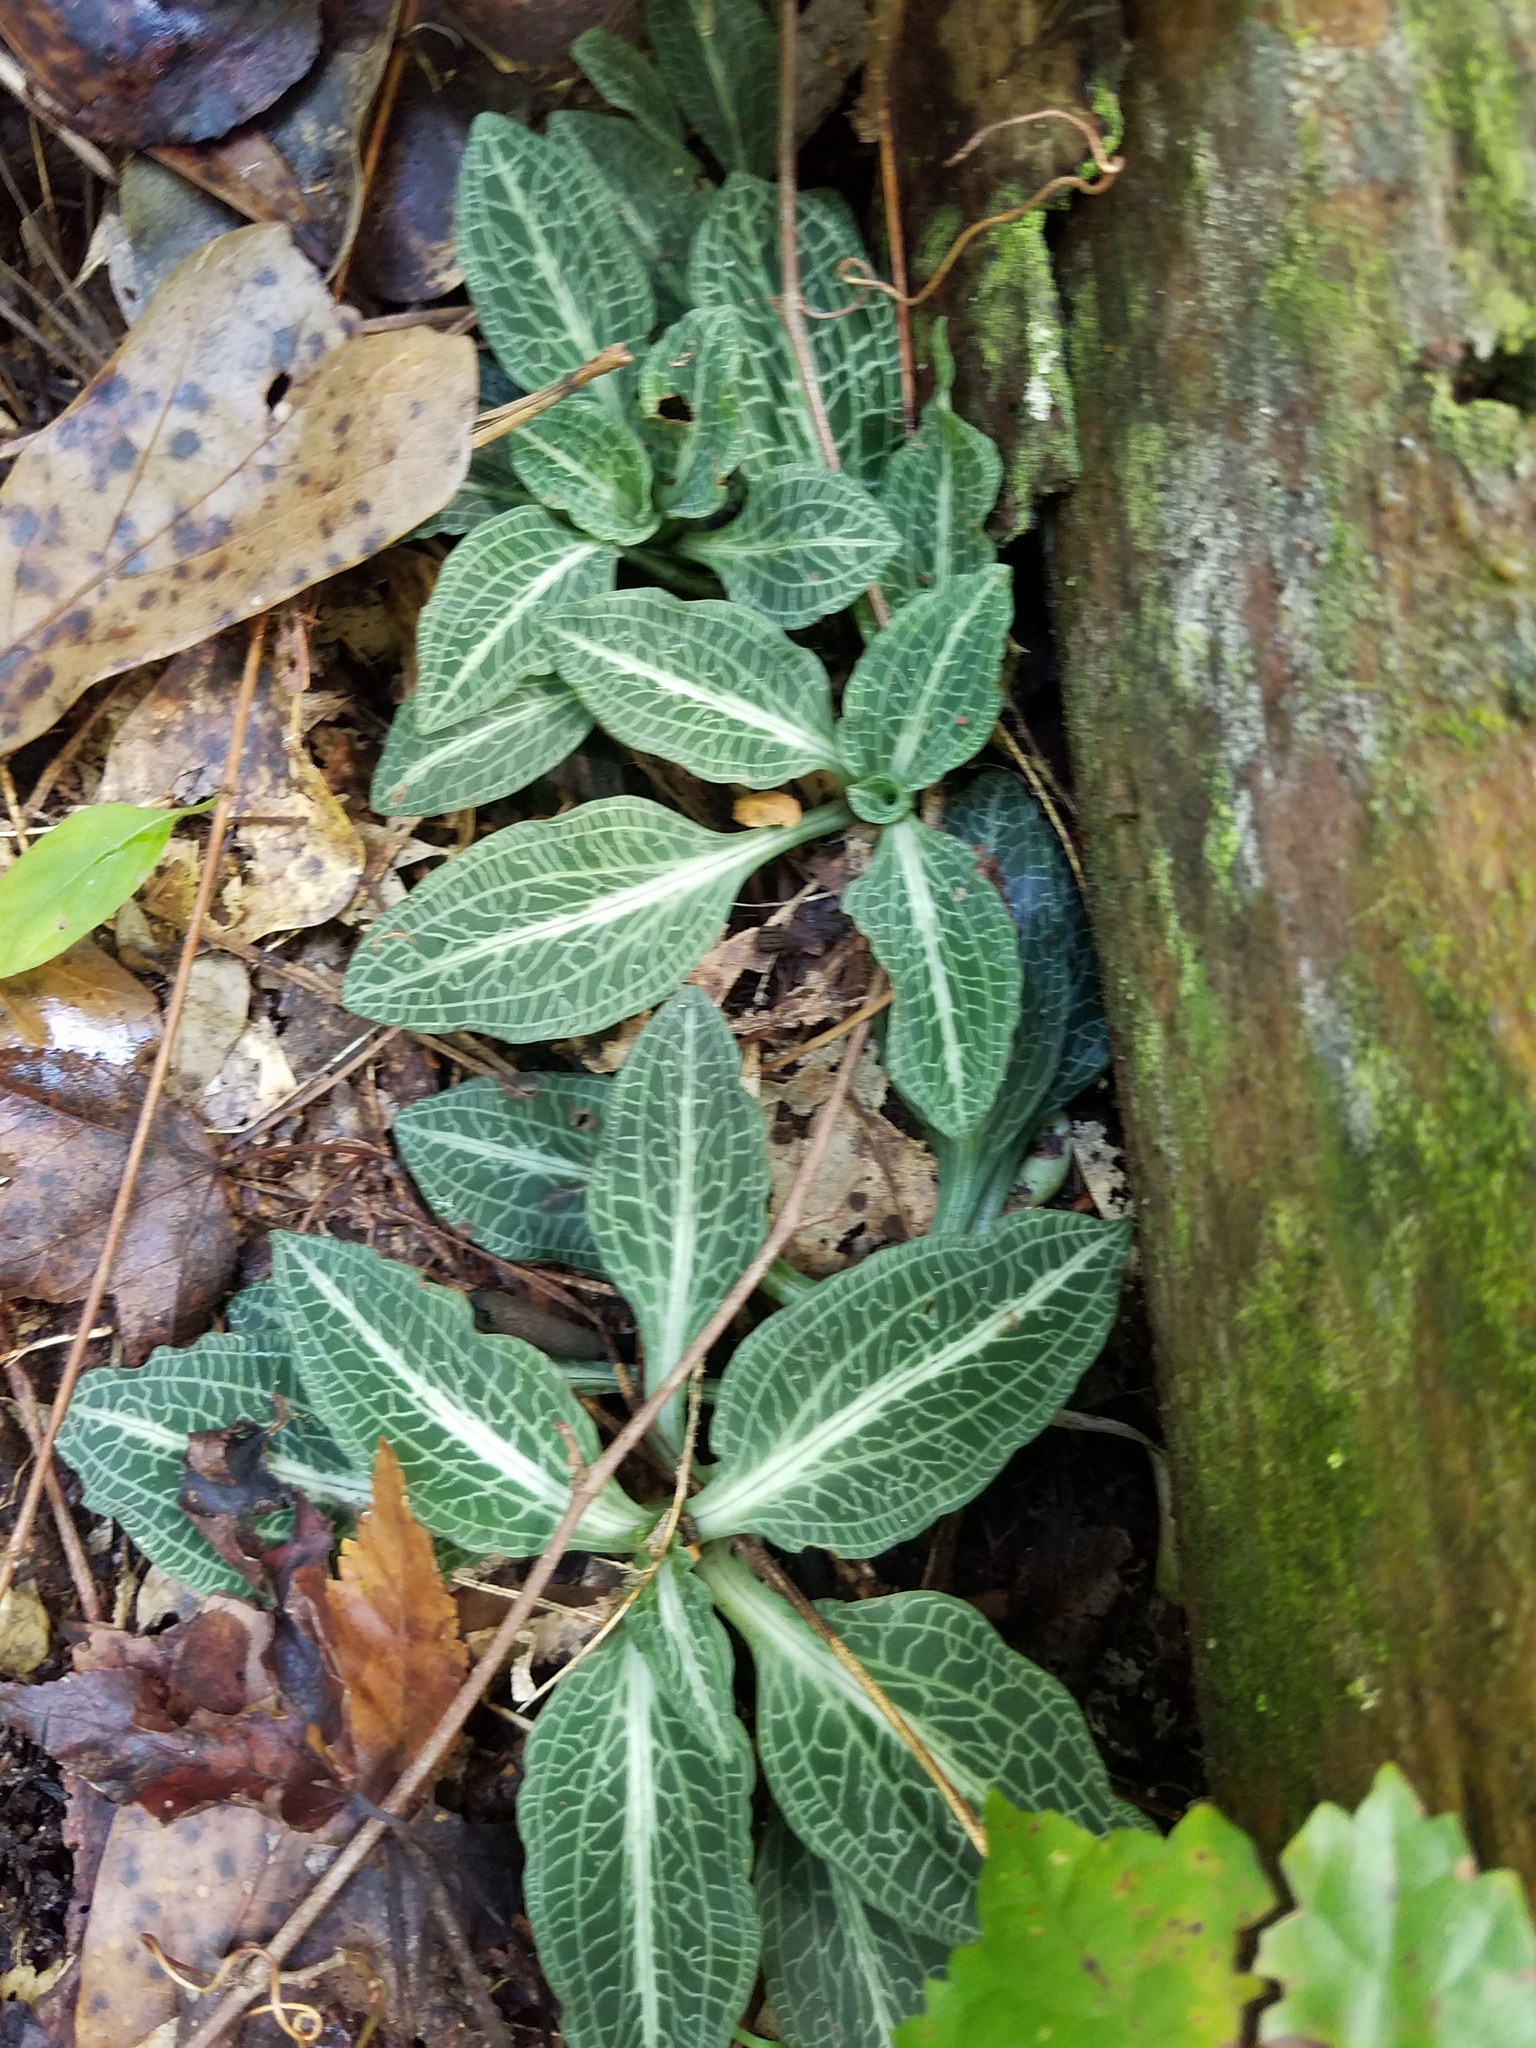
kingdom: Plantae
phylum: Tracheophyta
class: Liliopsida
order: Asparagales
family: Orchidaceae
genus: Goodyera
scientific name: Goodyera pubescens
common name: Downy rattlesnake-plantain
